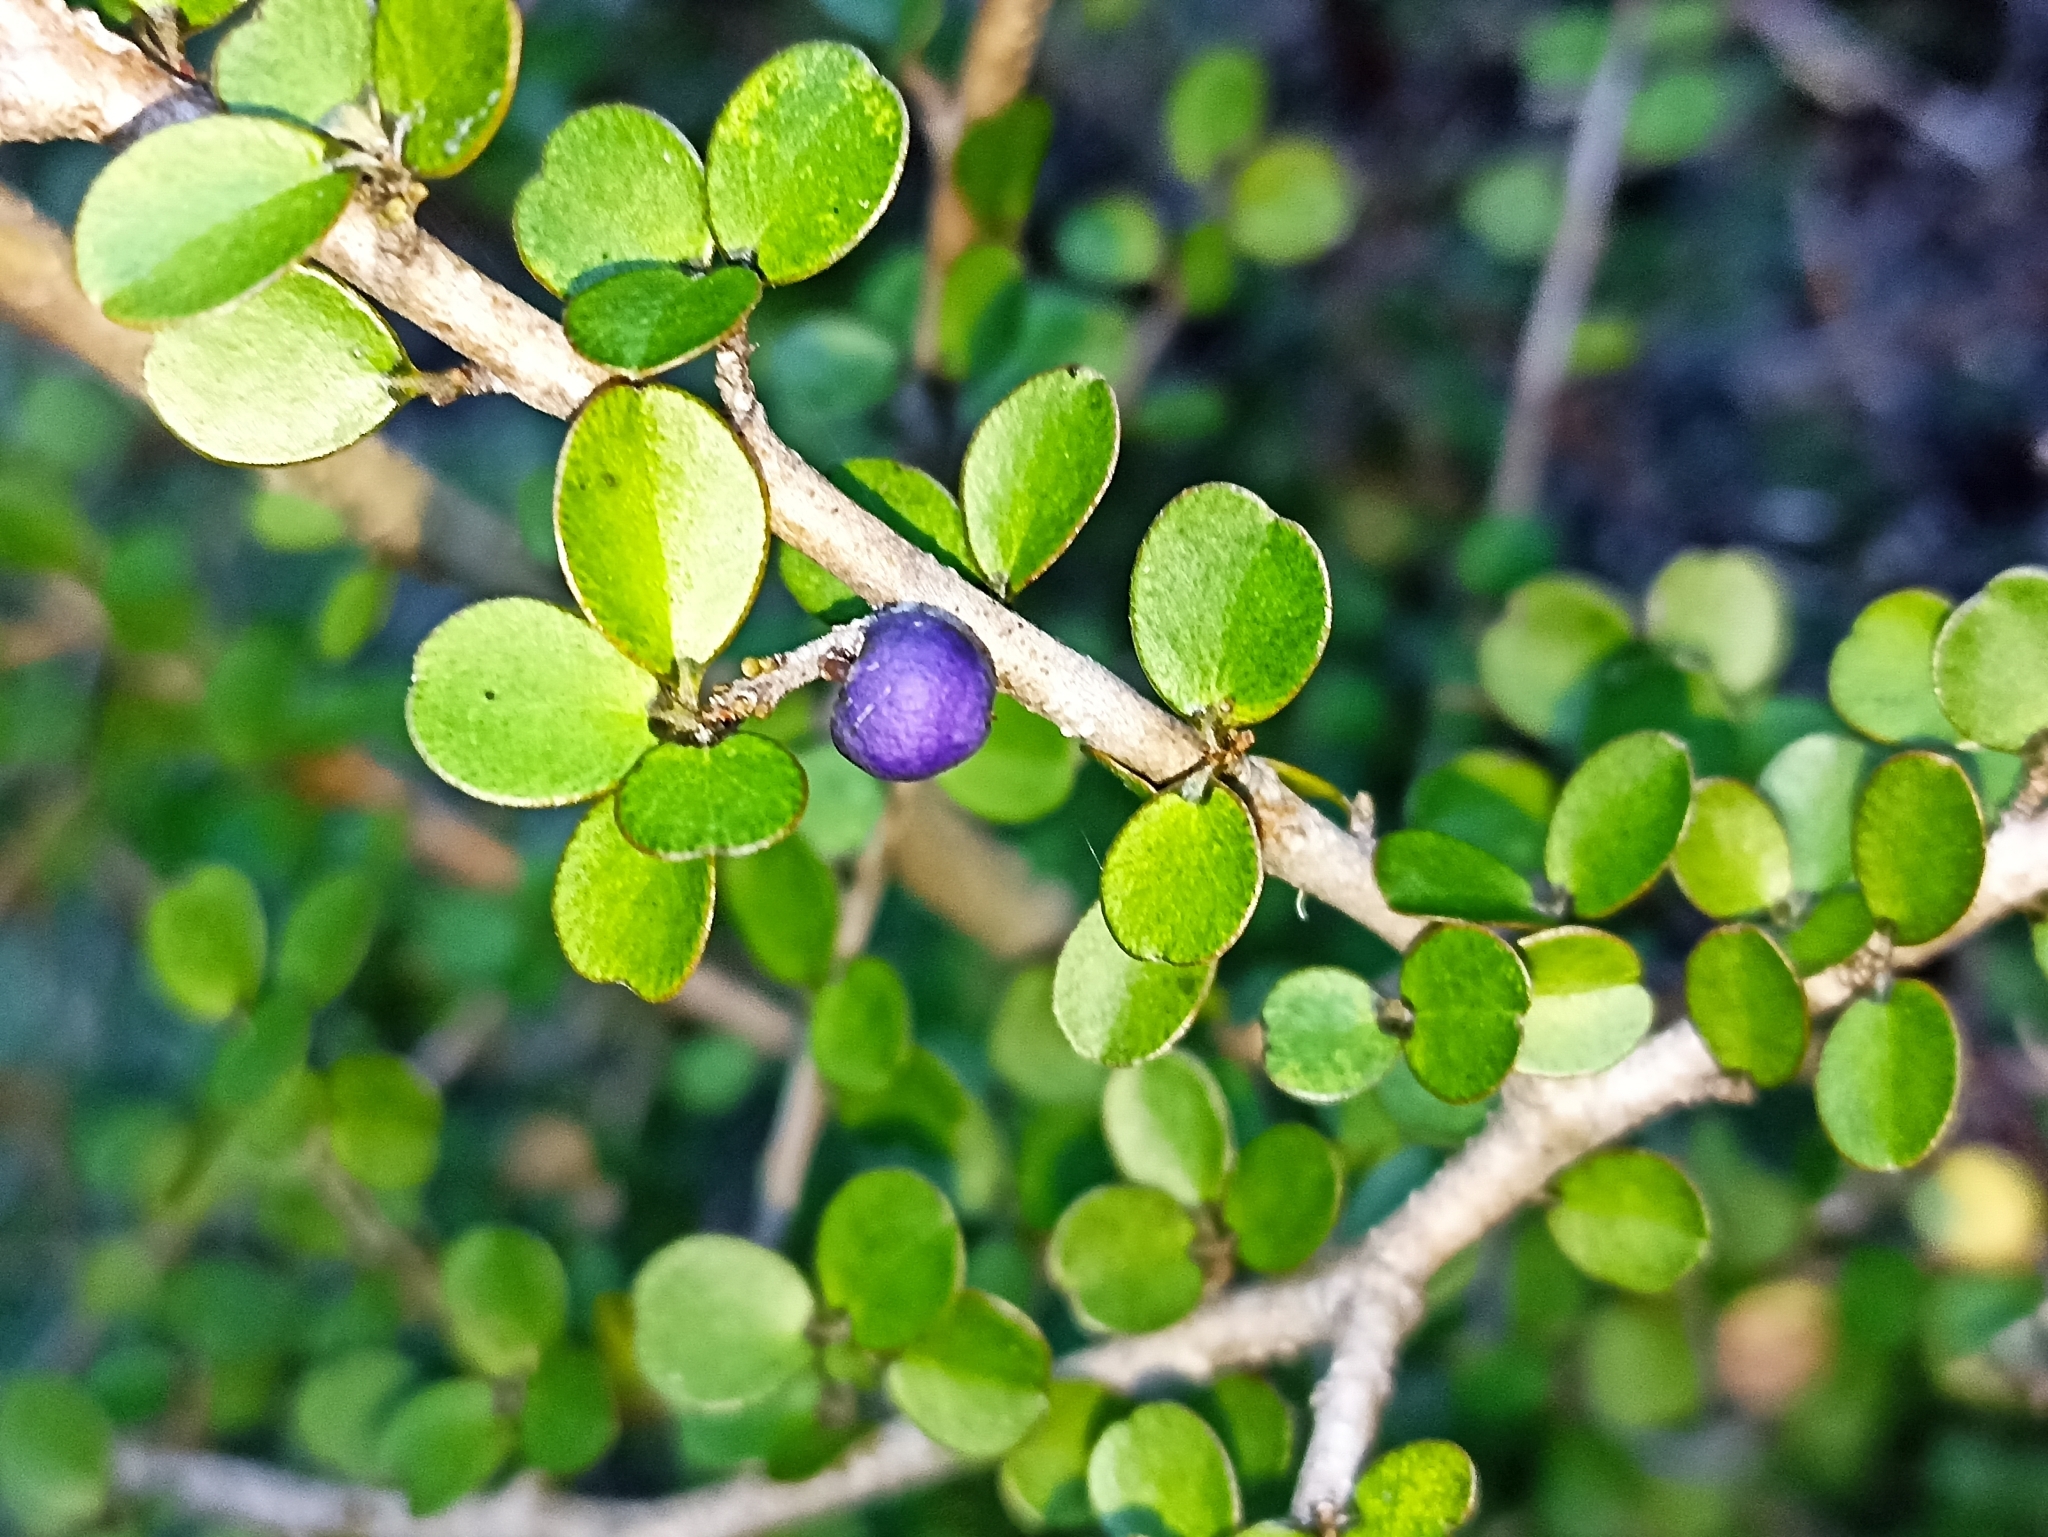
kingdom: Plantae
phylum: Tracheophyta
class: Magnoliopsida
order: Ericales
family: Primulaceae
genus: Myrsine
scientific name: Myrsine divaricata
